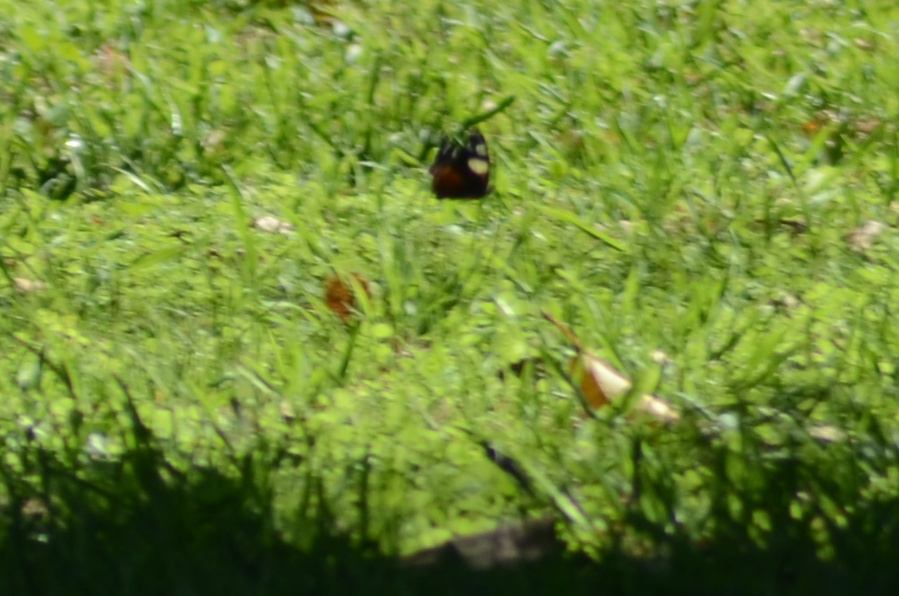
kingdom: Animalia
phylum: Arthropoda
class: Insecta
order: Lepidoptera
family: Nymphalidae
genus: Vanessa
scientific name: Vanessa itea
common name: Yellow admiral
